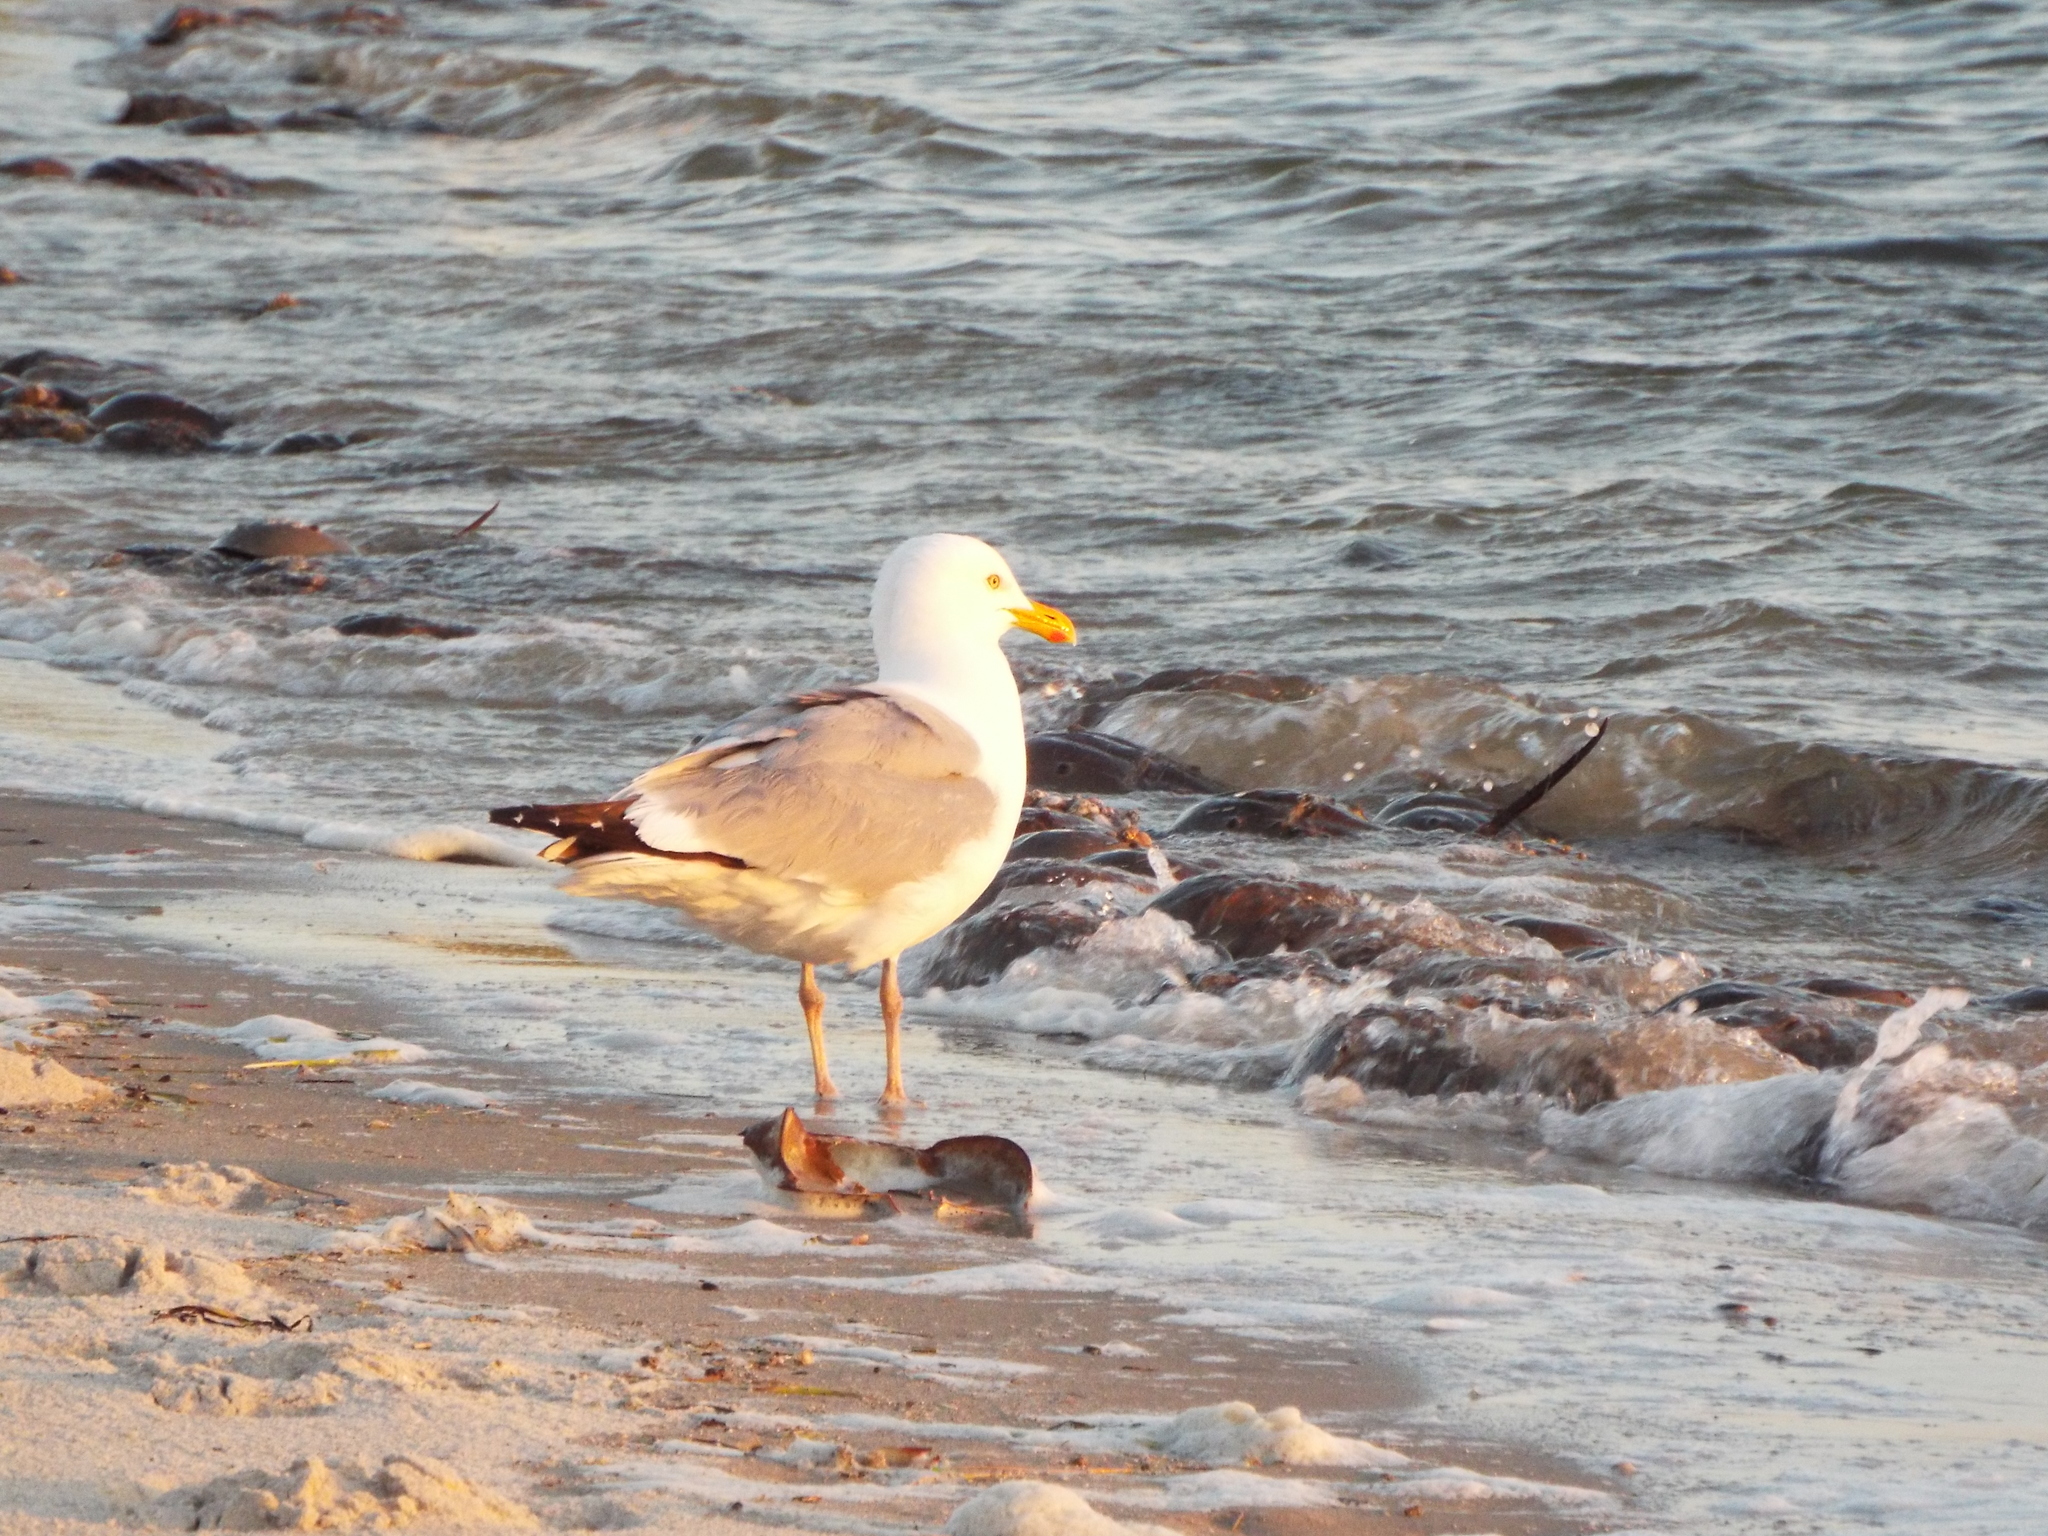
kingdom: Animalia
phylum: Chordata
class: Aves
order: Charadriiformes
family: Laridae
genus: Larus
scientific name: Larus argentatus
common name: Herring gull
